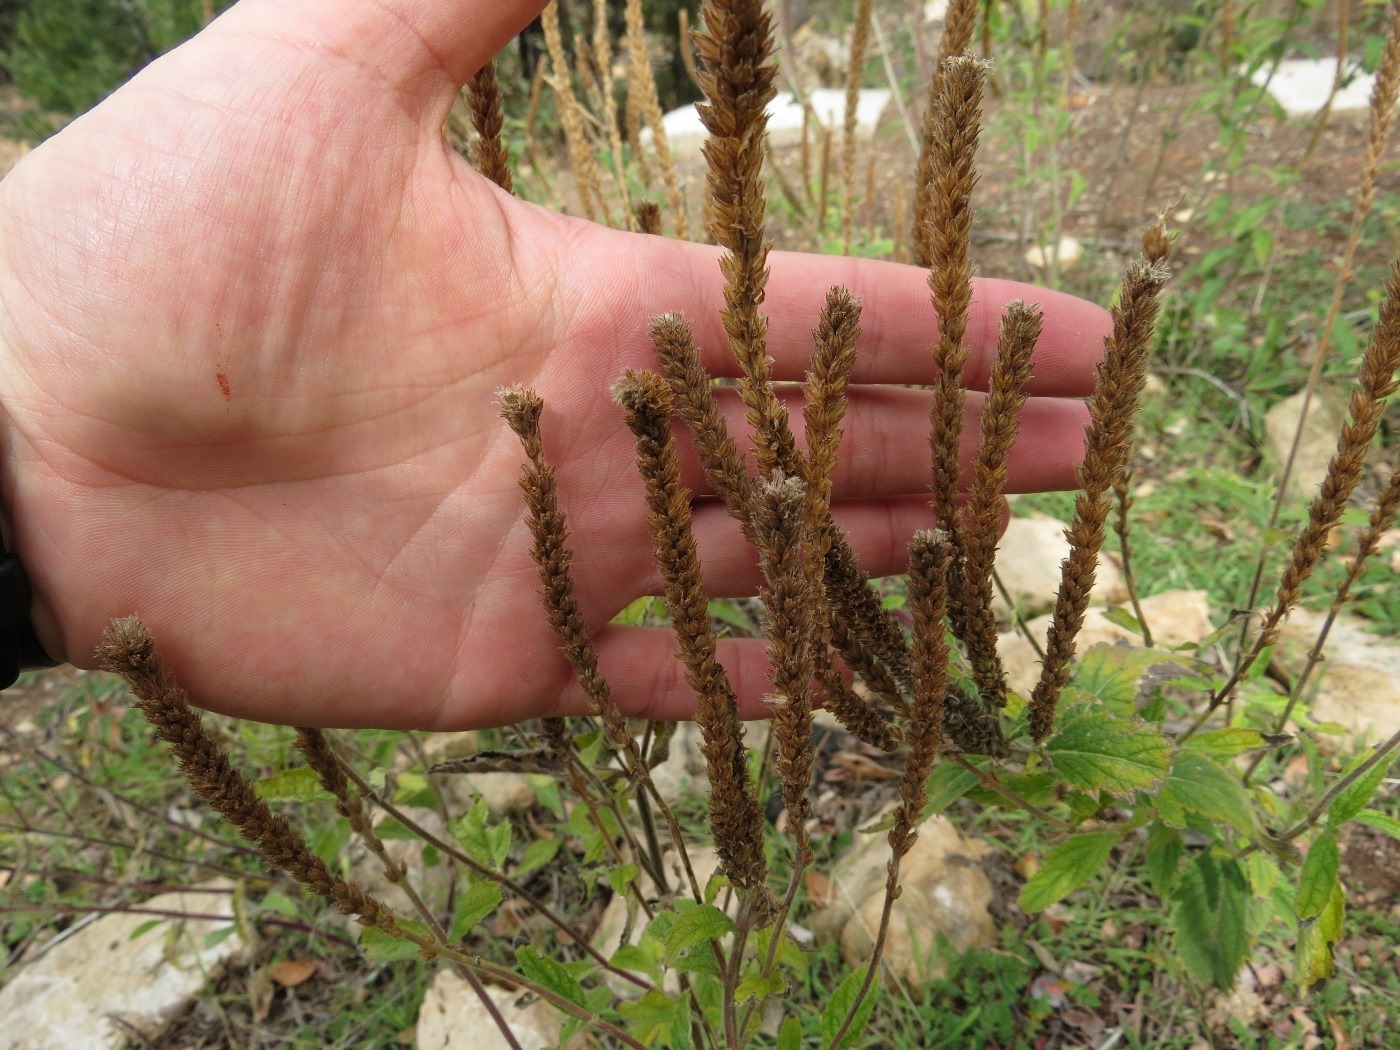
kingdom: Plantae
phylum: Tracheophyta
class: Magnoliopsida
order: Lamiales
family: Verbenaceae
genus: Verbena
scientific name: Verbena macdougalii
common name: New mexico vervain
